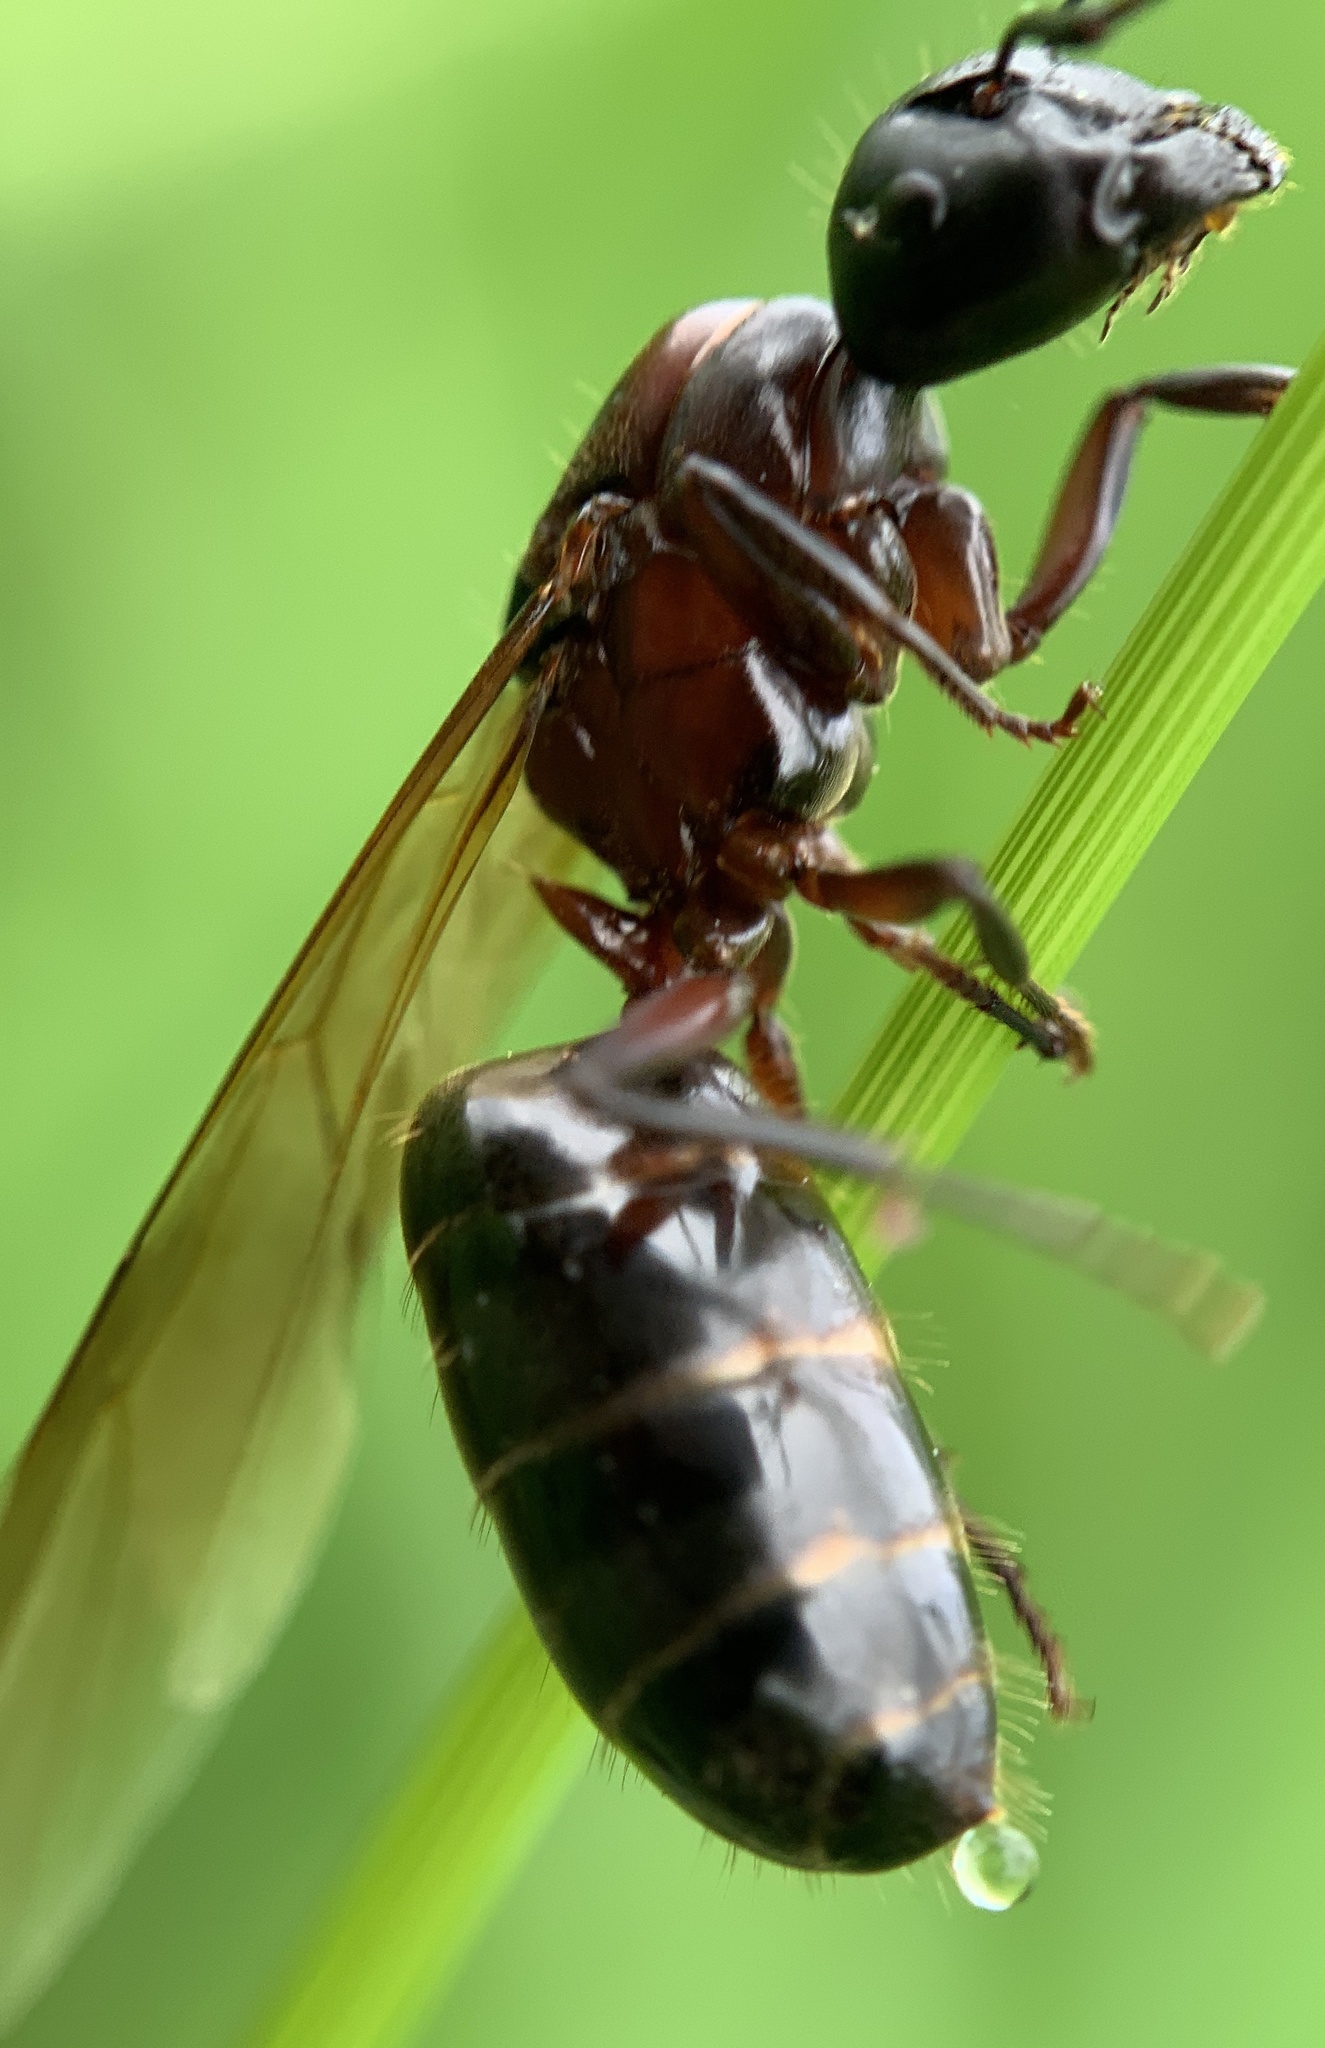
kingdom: Animalia
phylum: Arthropoda
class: Insecta
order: Hymenoptera
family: Formicidae
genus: Camponotus
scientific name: Camponotus novaeboracensis
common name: New york carpenter ant
